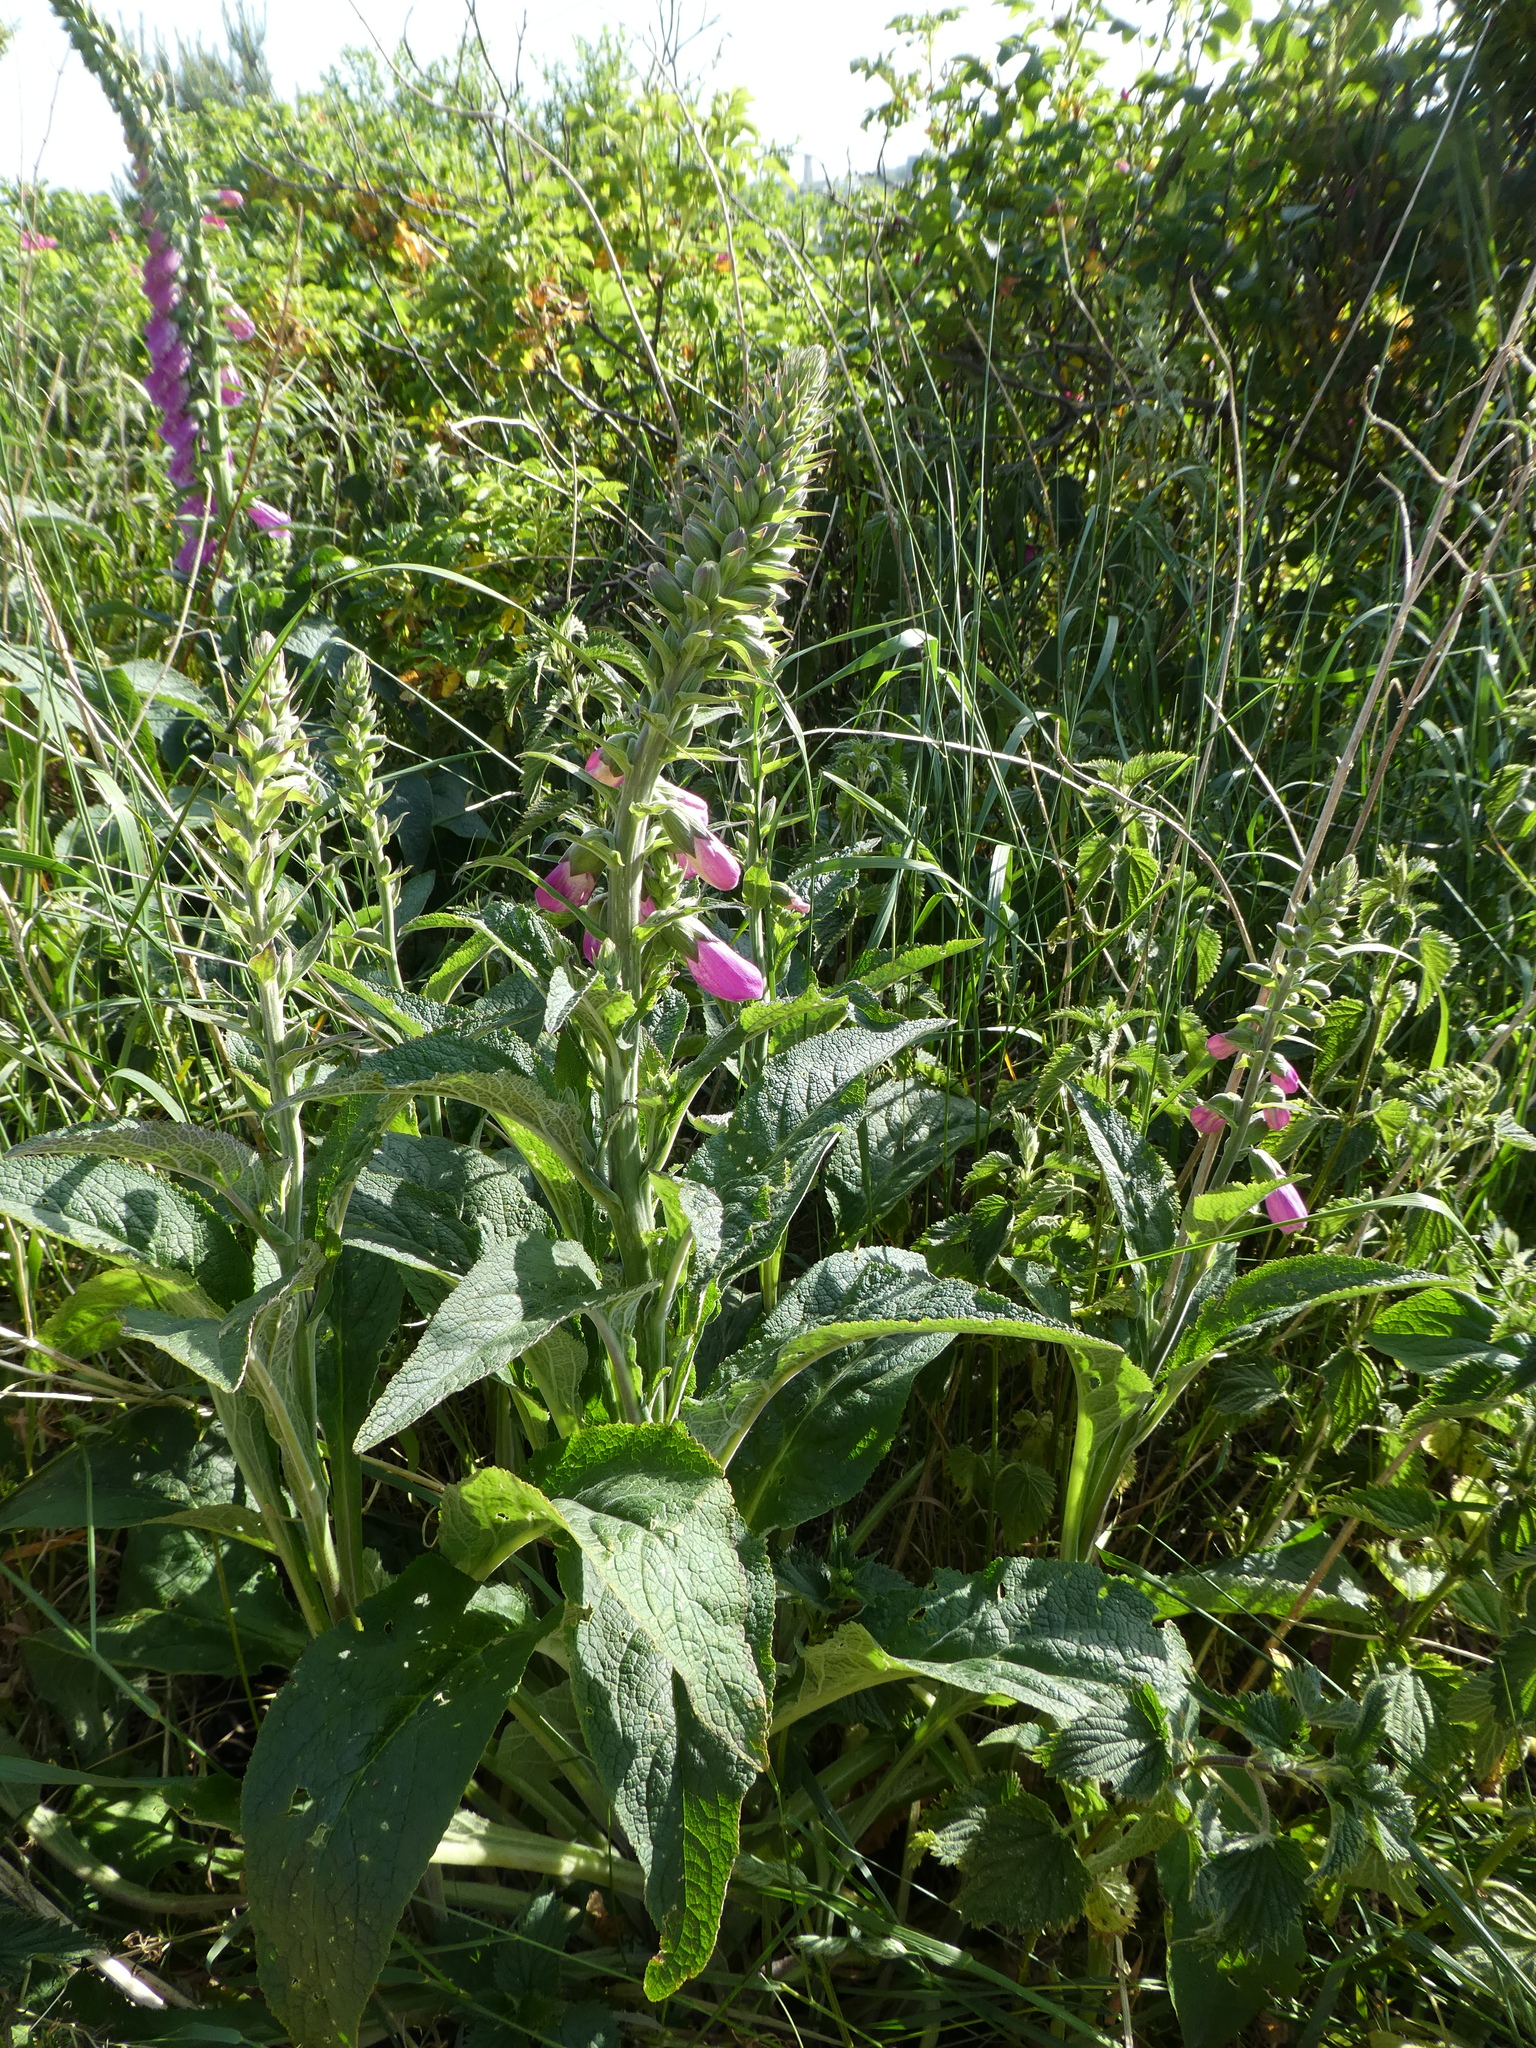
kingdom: Plantae
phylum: Tracheophyta
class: Magnoliopsida
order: Lamiales
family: Plantaginaceae
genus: Digitalis
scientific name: Digitalis purpurea
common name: Foxglove
